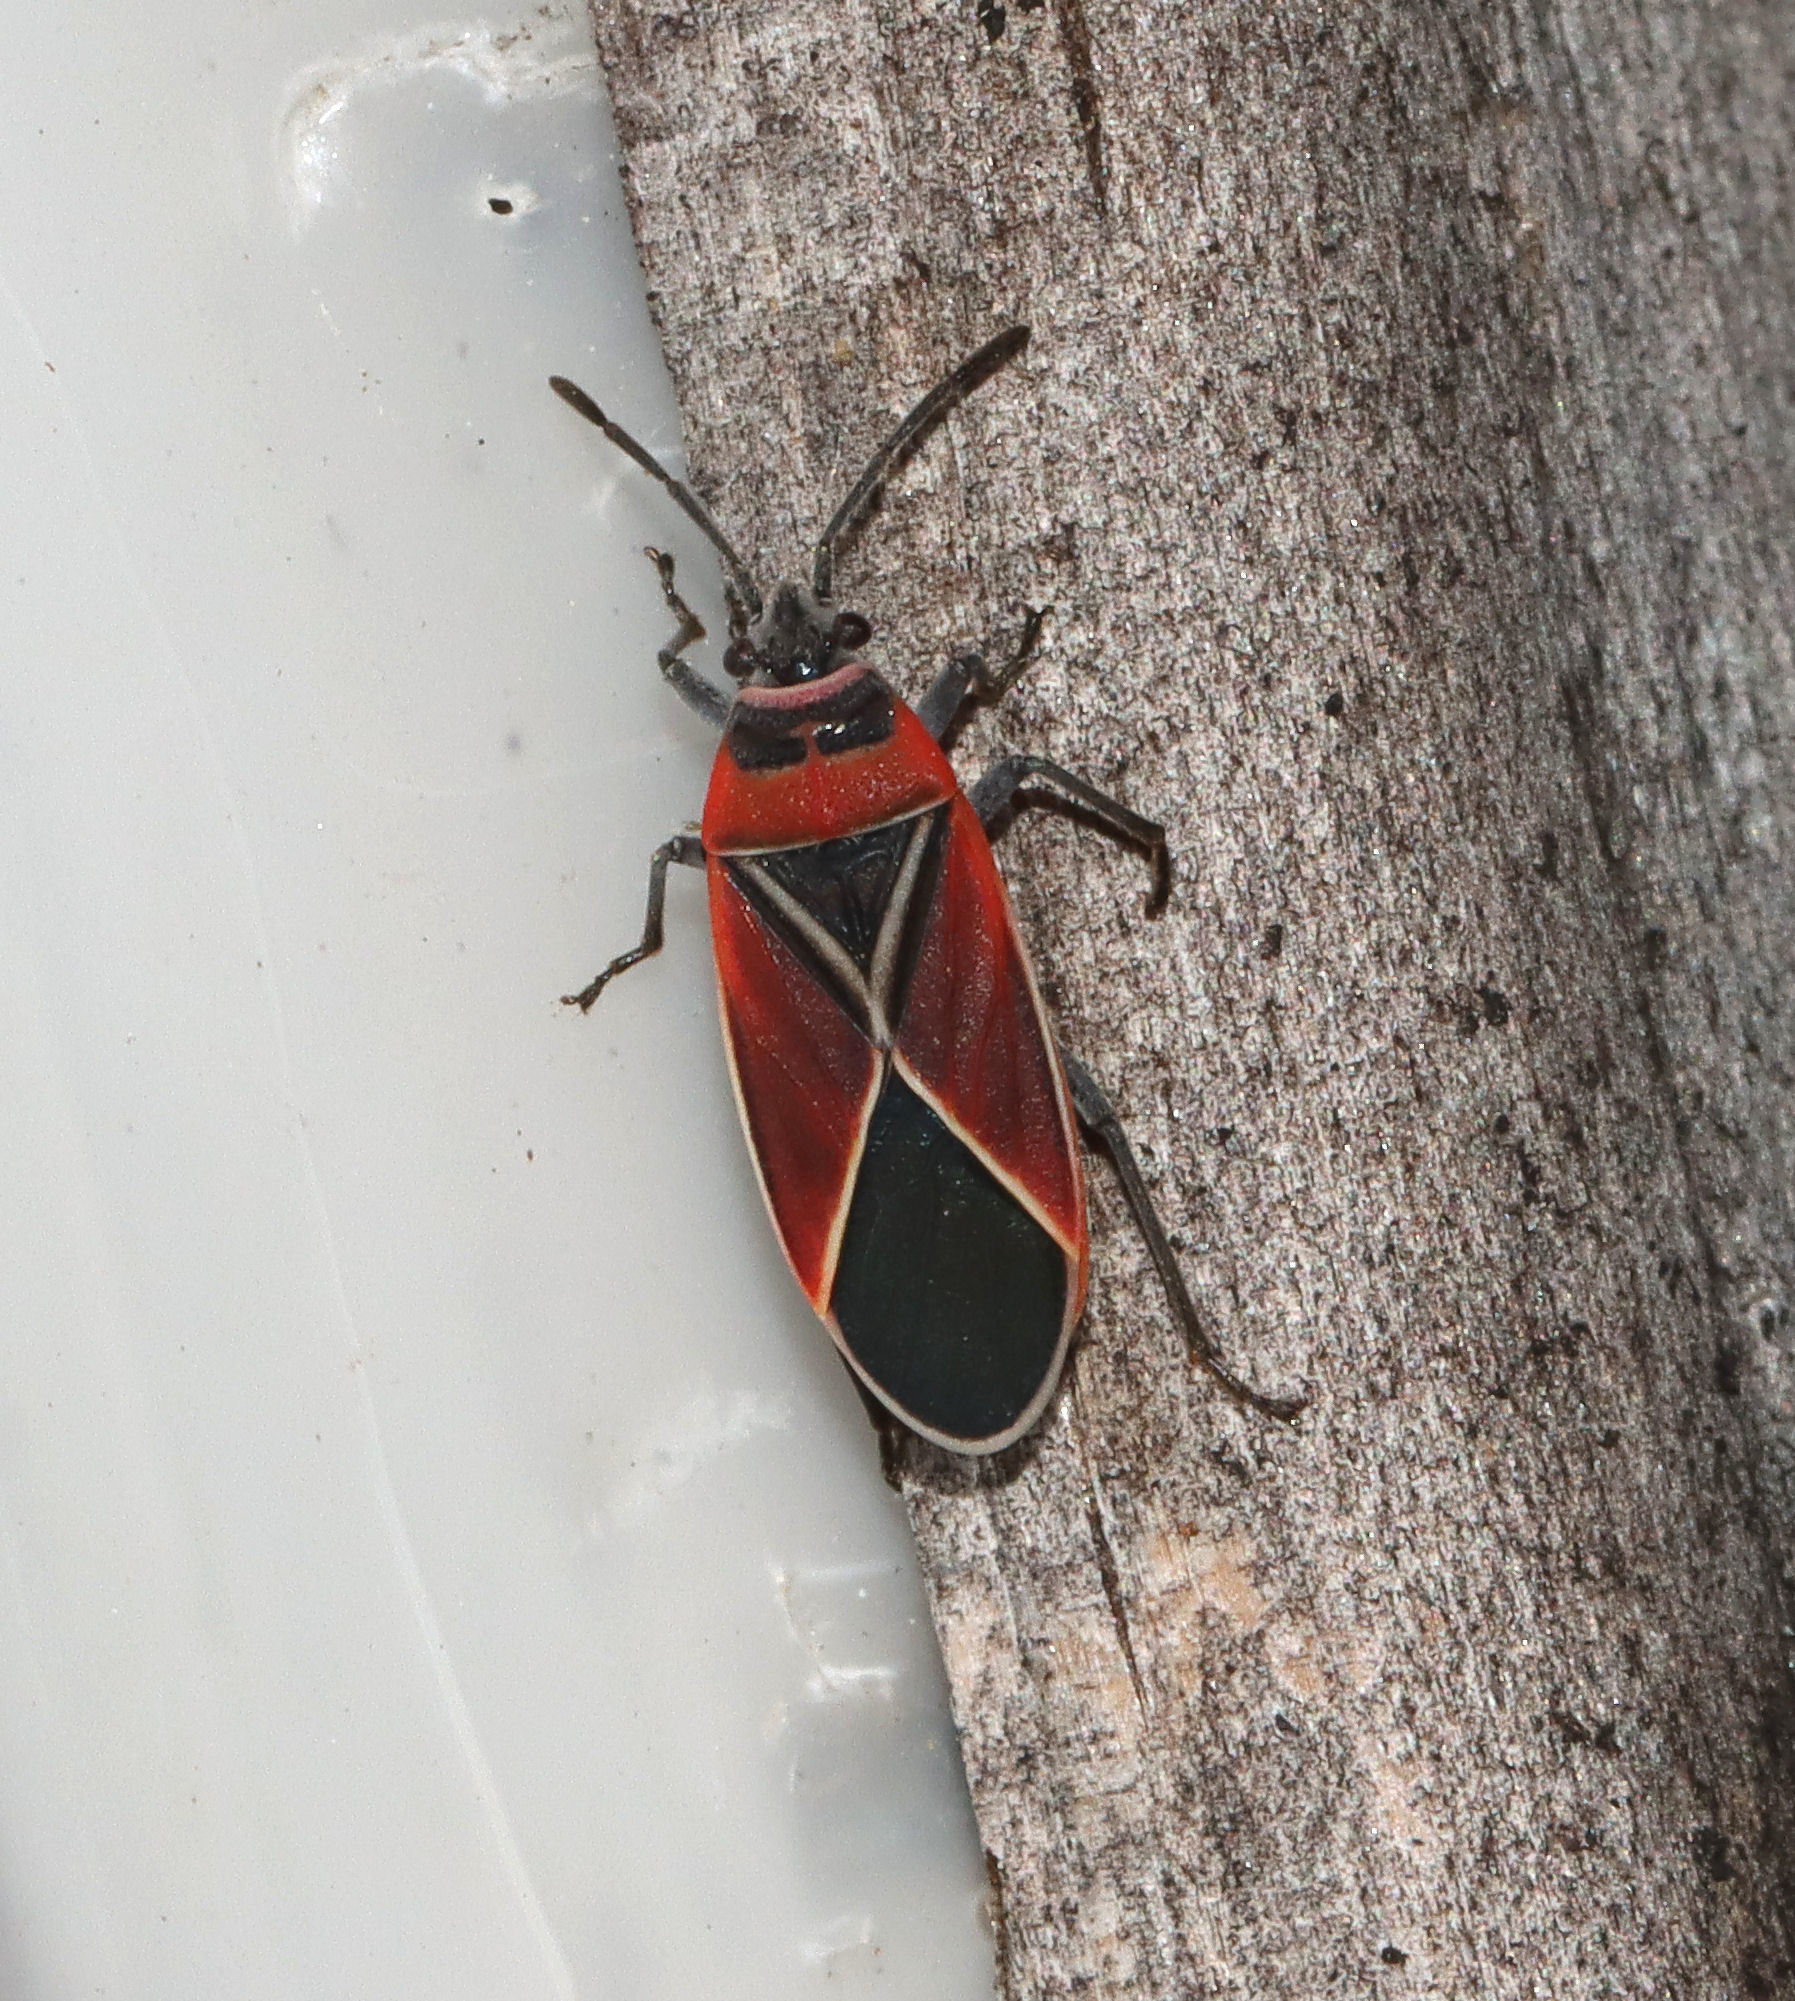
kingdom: Animalia
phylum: Arthropoda
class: Insecta
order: Hemiptera
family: Lygaeidae
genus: Neacoryphus
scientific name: Neacoryphus bicrucis
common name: Lygaeid bug
